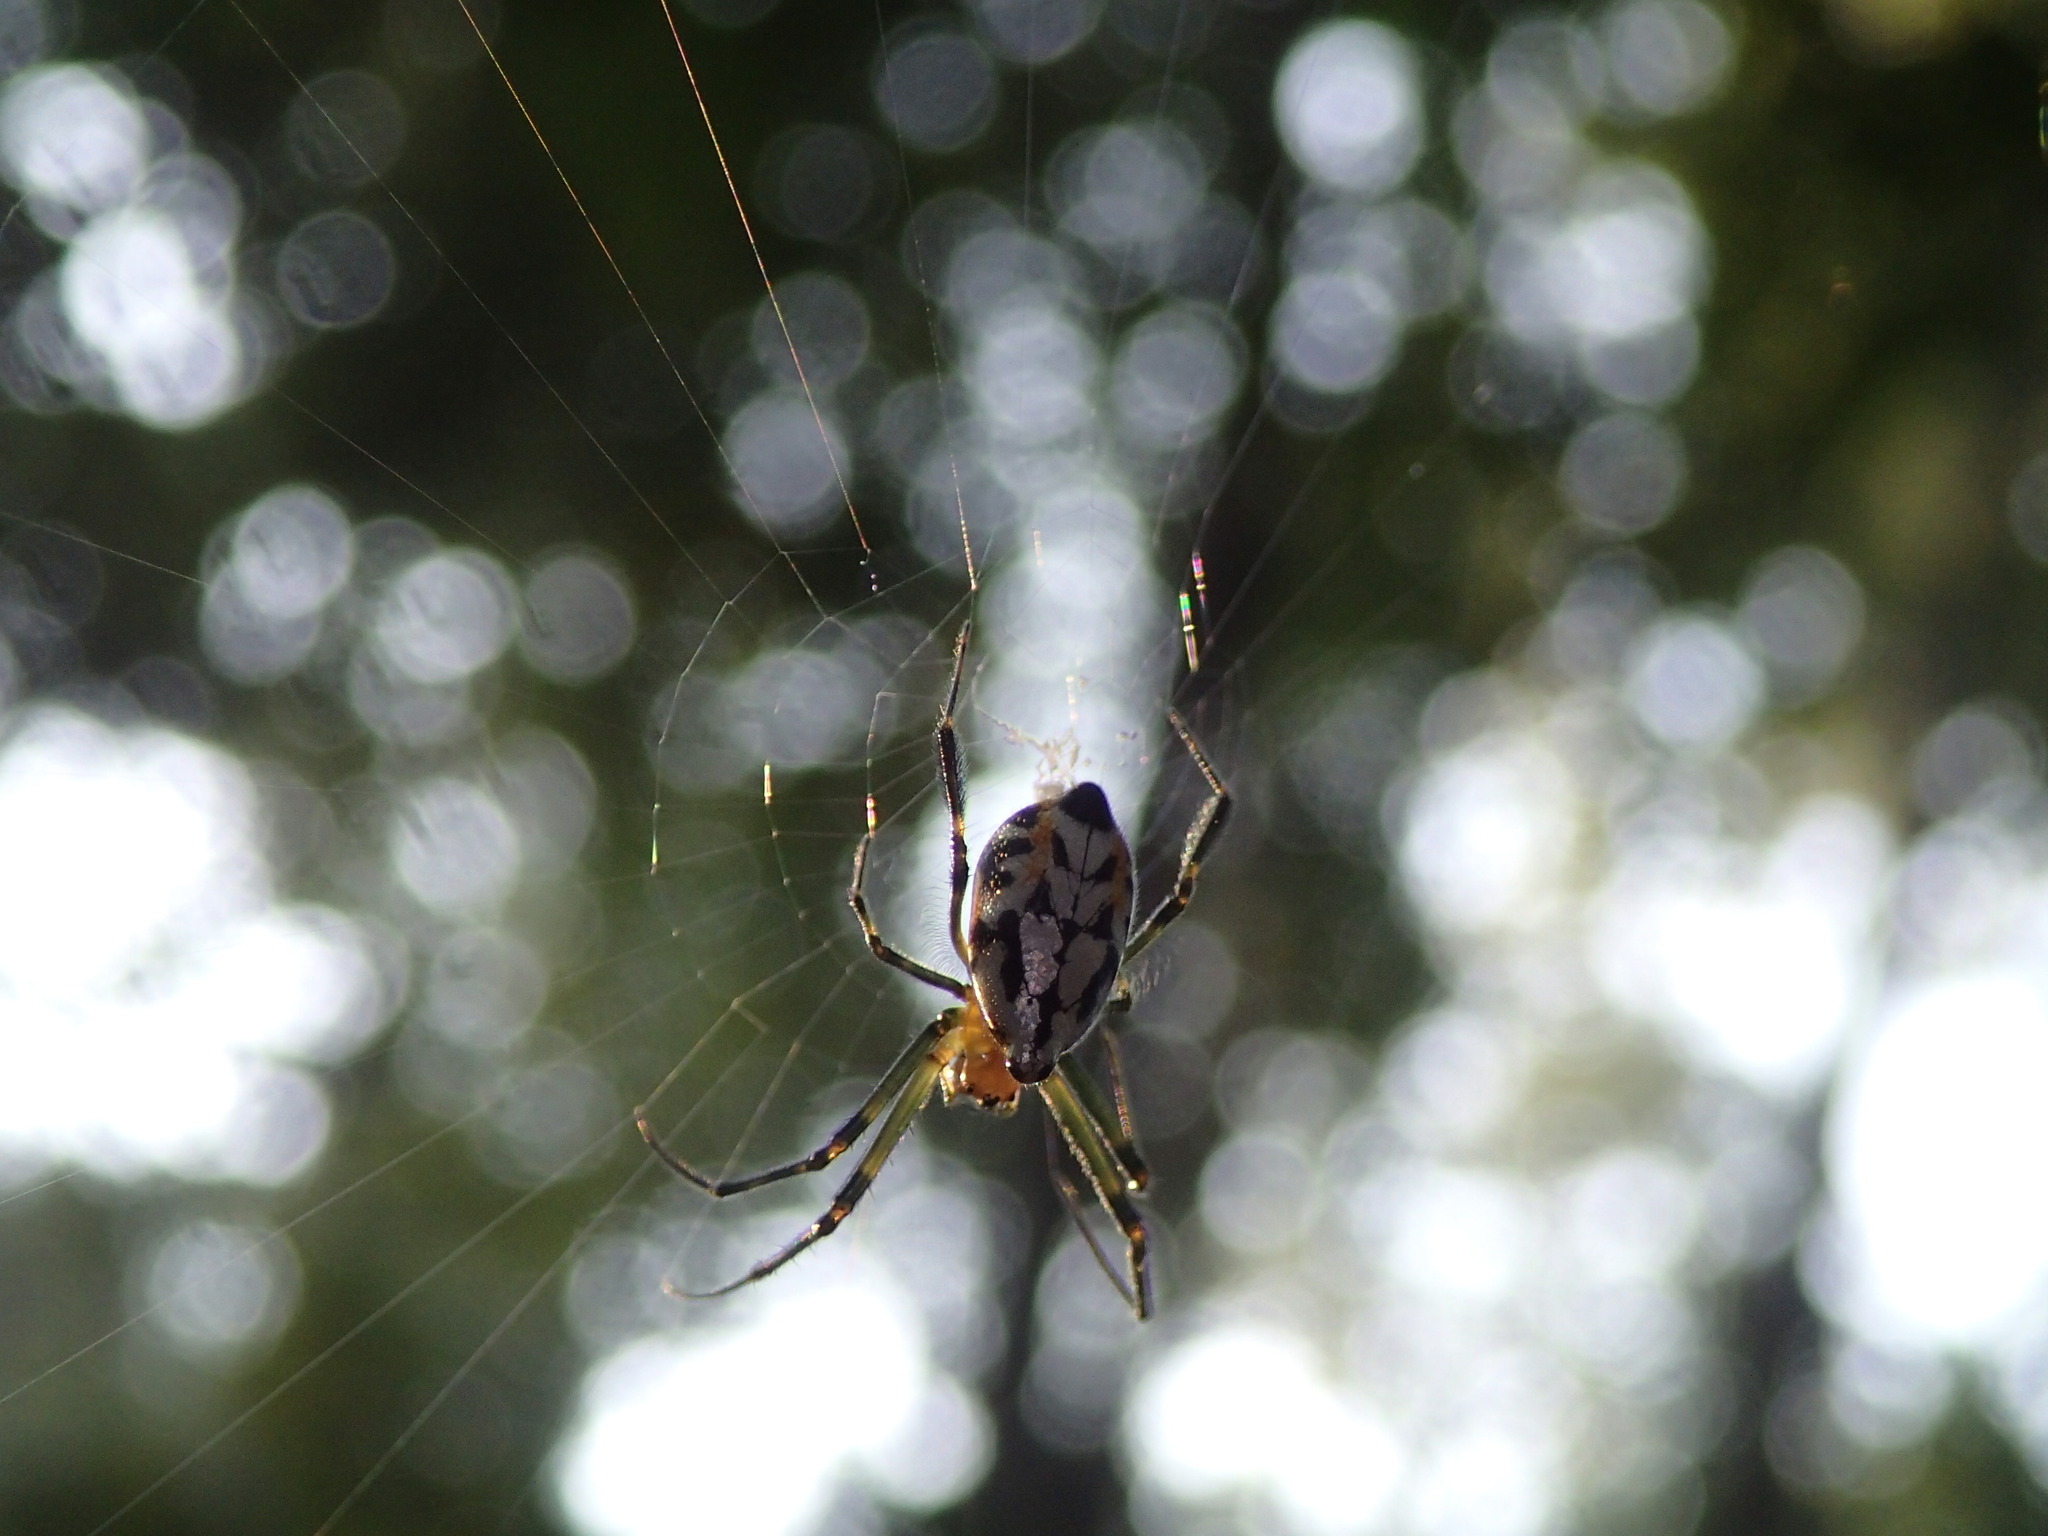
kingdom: Animalia
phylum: Arthropoda
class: Arachnida
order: Araneae
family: Tetragnathidae
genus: Leucauge
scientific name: Leucauge fastigata
